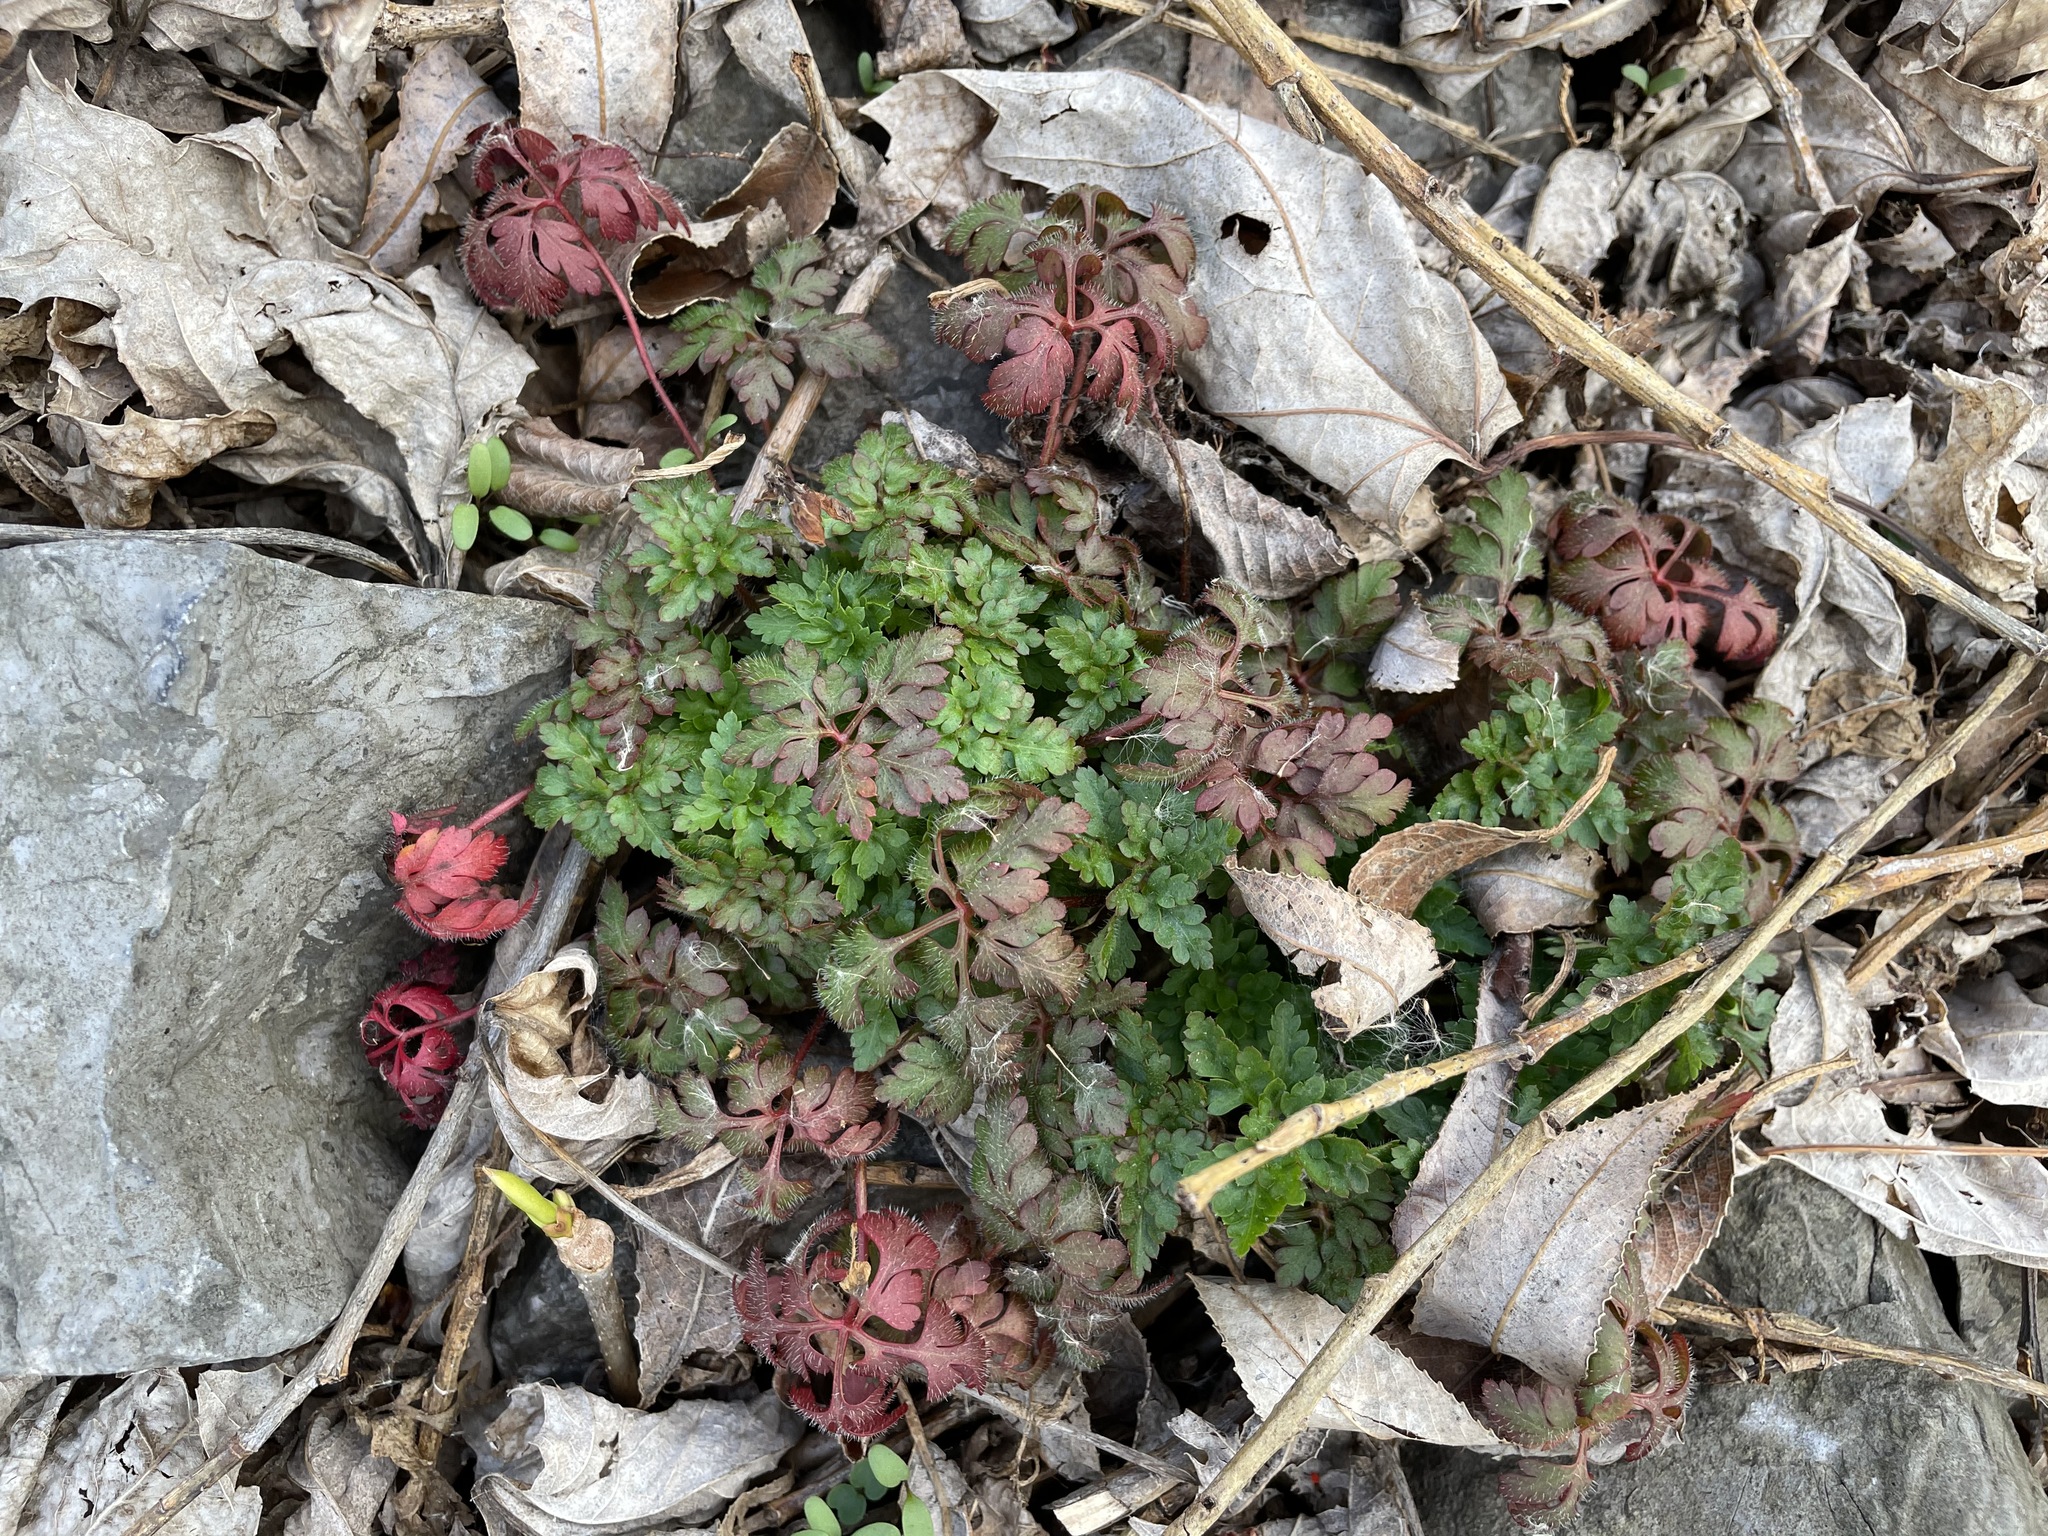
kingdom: Plantae
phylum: Tracheophyta
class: Magnoliopsida
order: Geraniales
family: Geraniaceae
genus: Geranium
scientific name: Geranium robertianum
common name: Herb-robert
